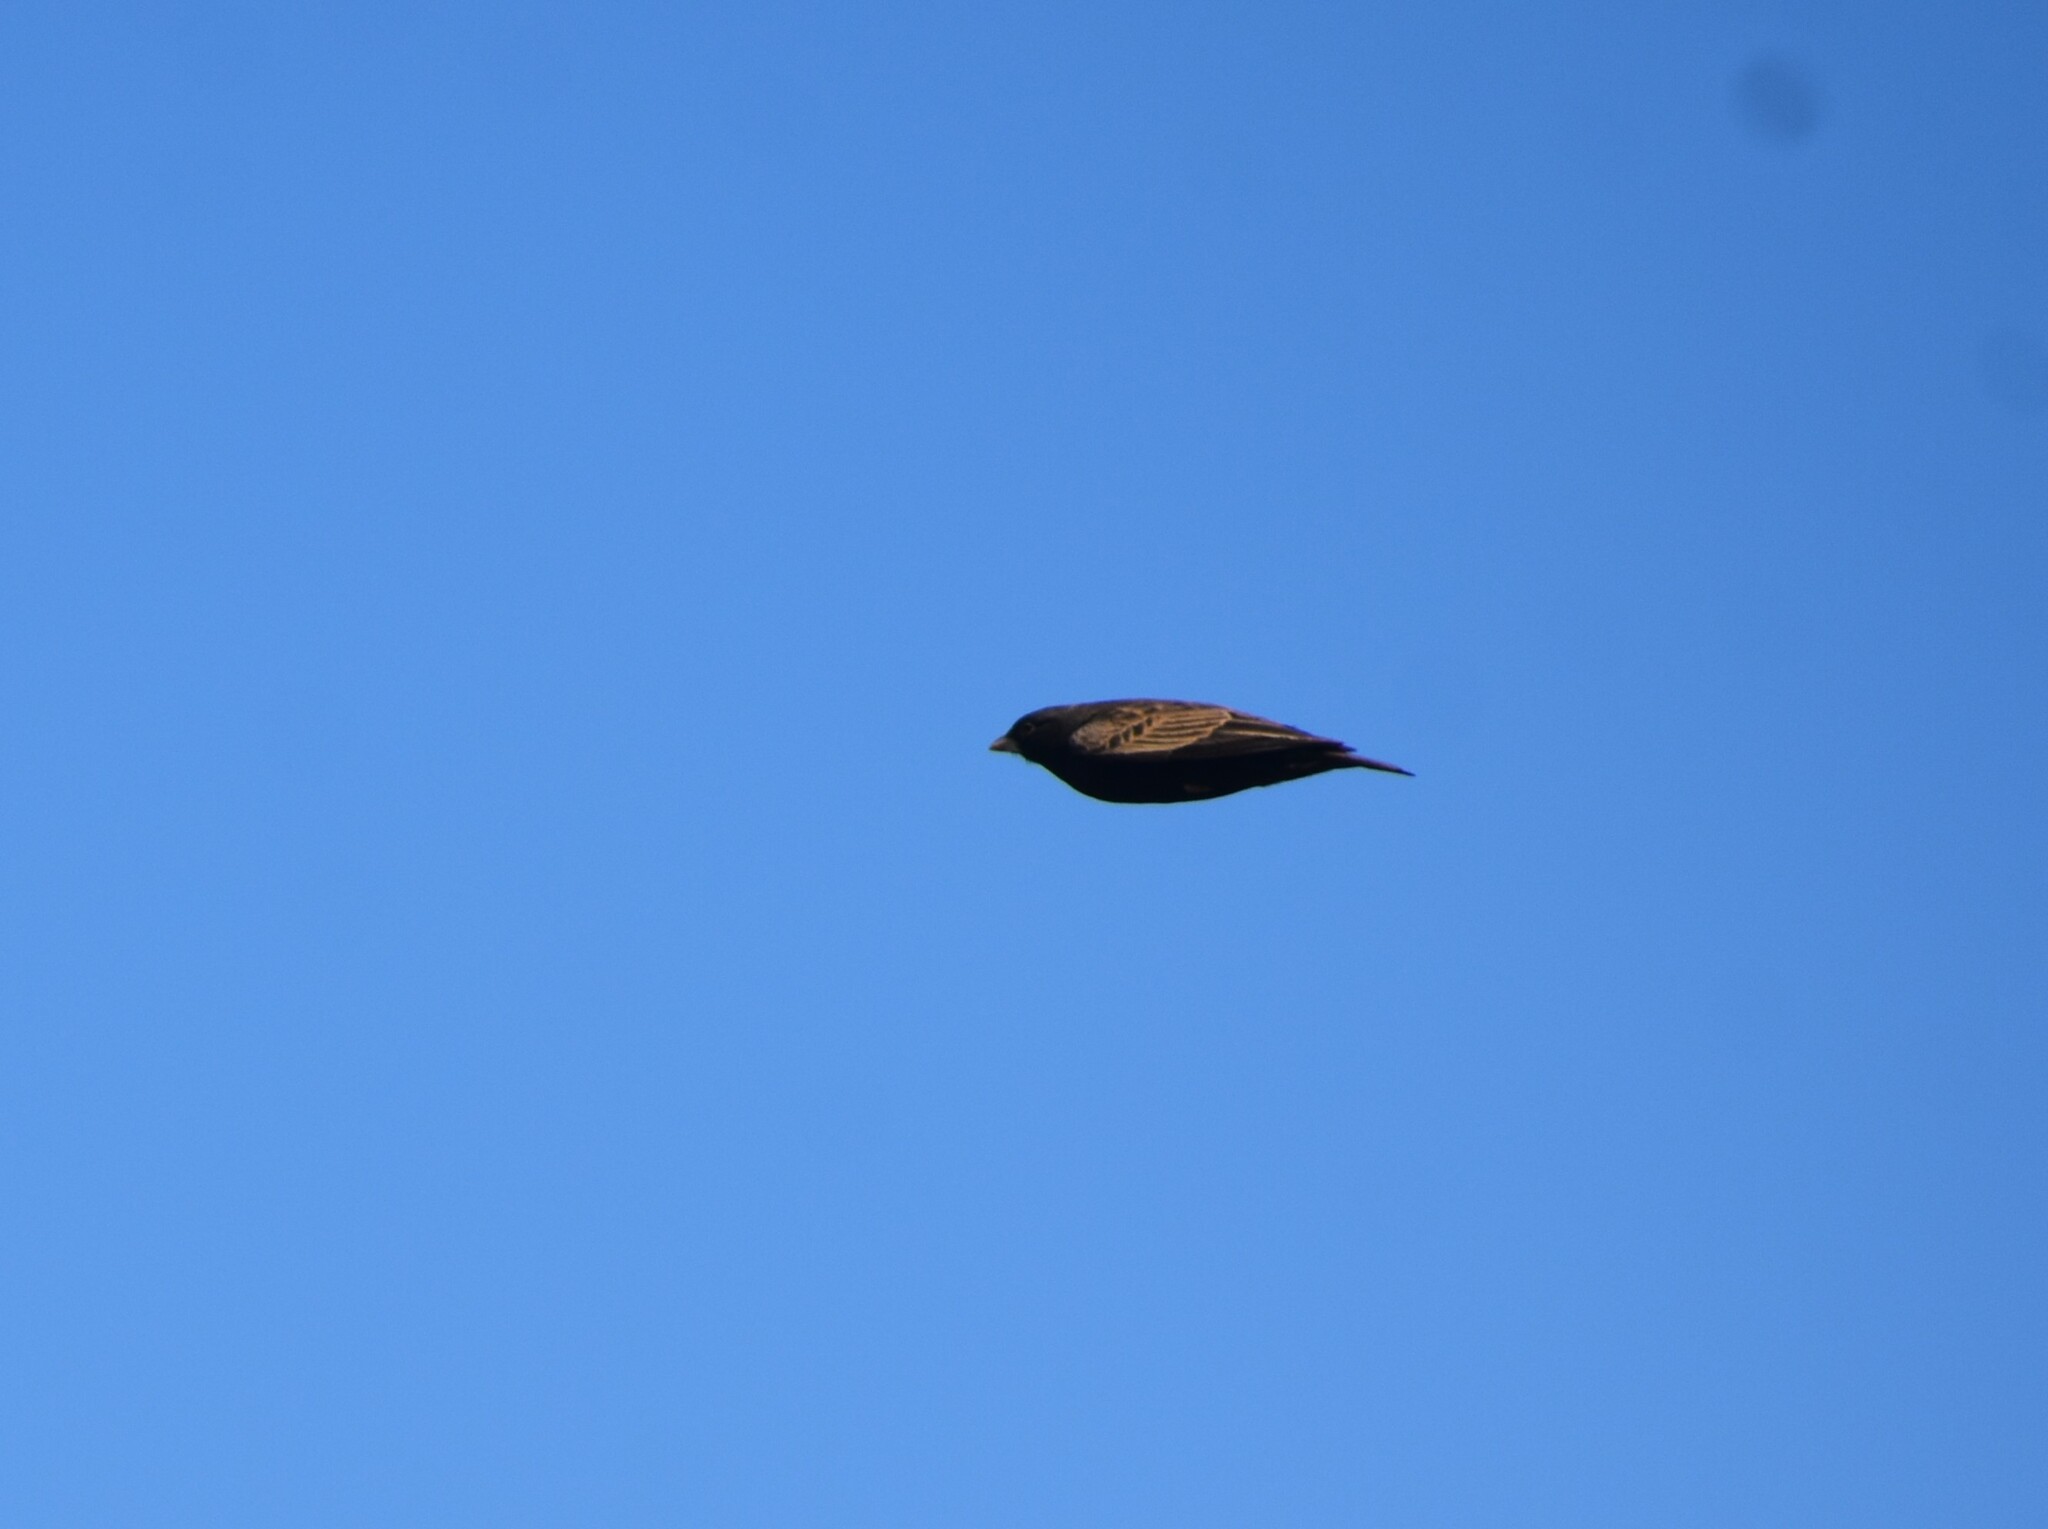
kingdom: Animalia
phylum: Chordata
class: Aves
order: Passeriformes
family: Alaudidae
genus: Eremopterix
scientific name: Eremopterix australis
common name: Black-eared sparrow-lark
